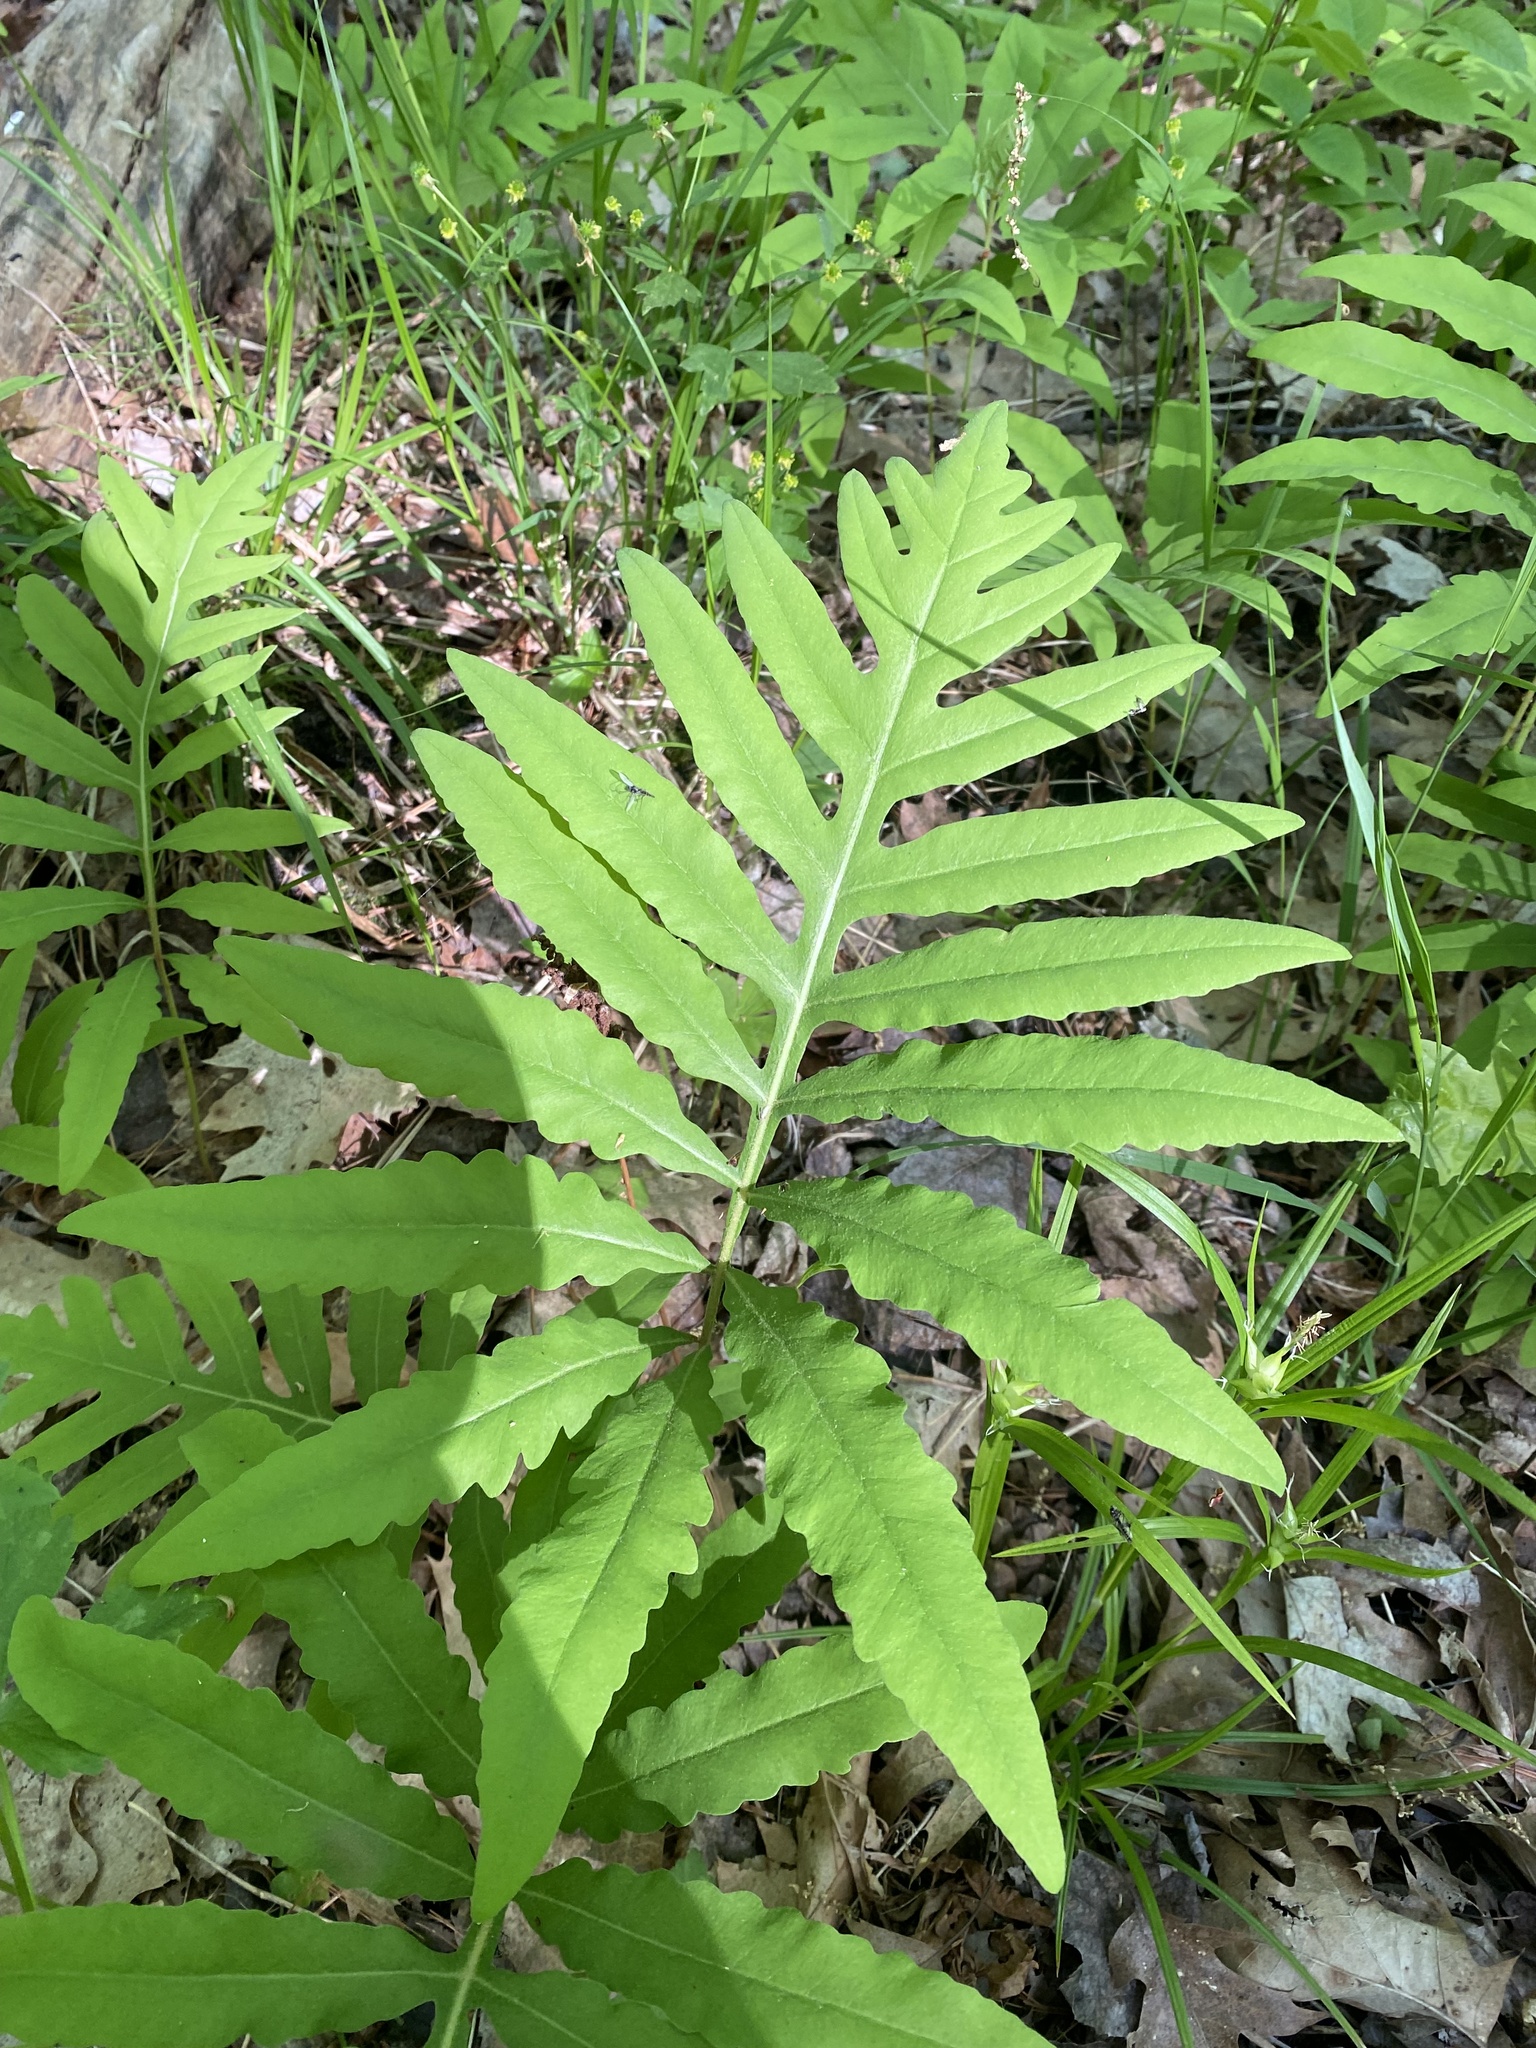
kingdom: Plantae
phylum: Tracheophyta
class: Polypodiopsida
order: Polypodiales
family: Onocleaceae
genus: Onoclea
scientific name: Onoclea sensibilis
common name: Sensitive fern
